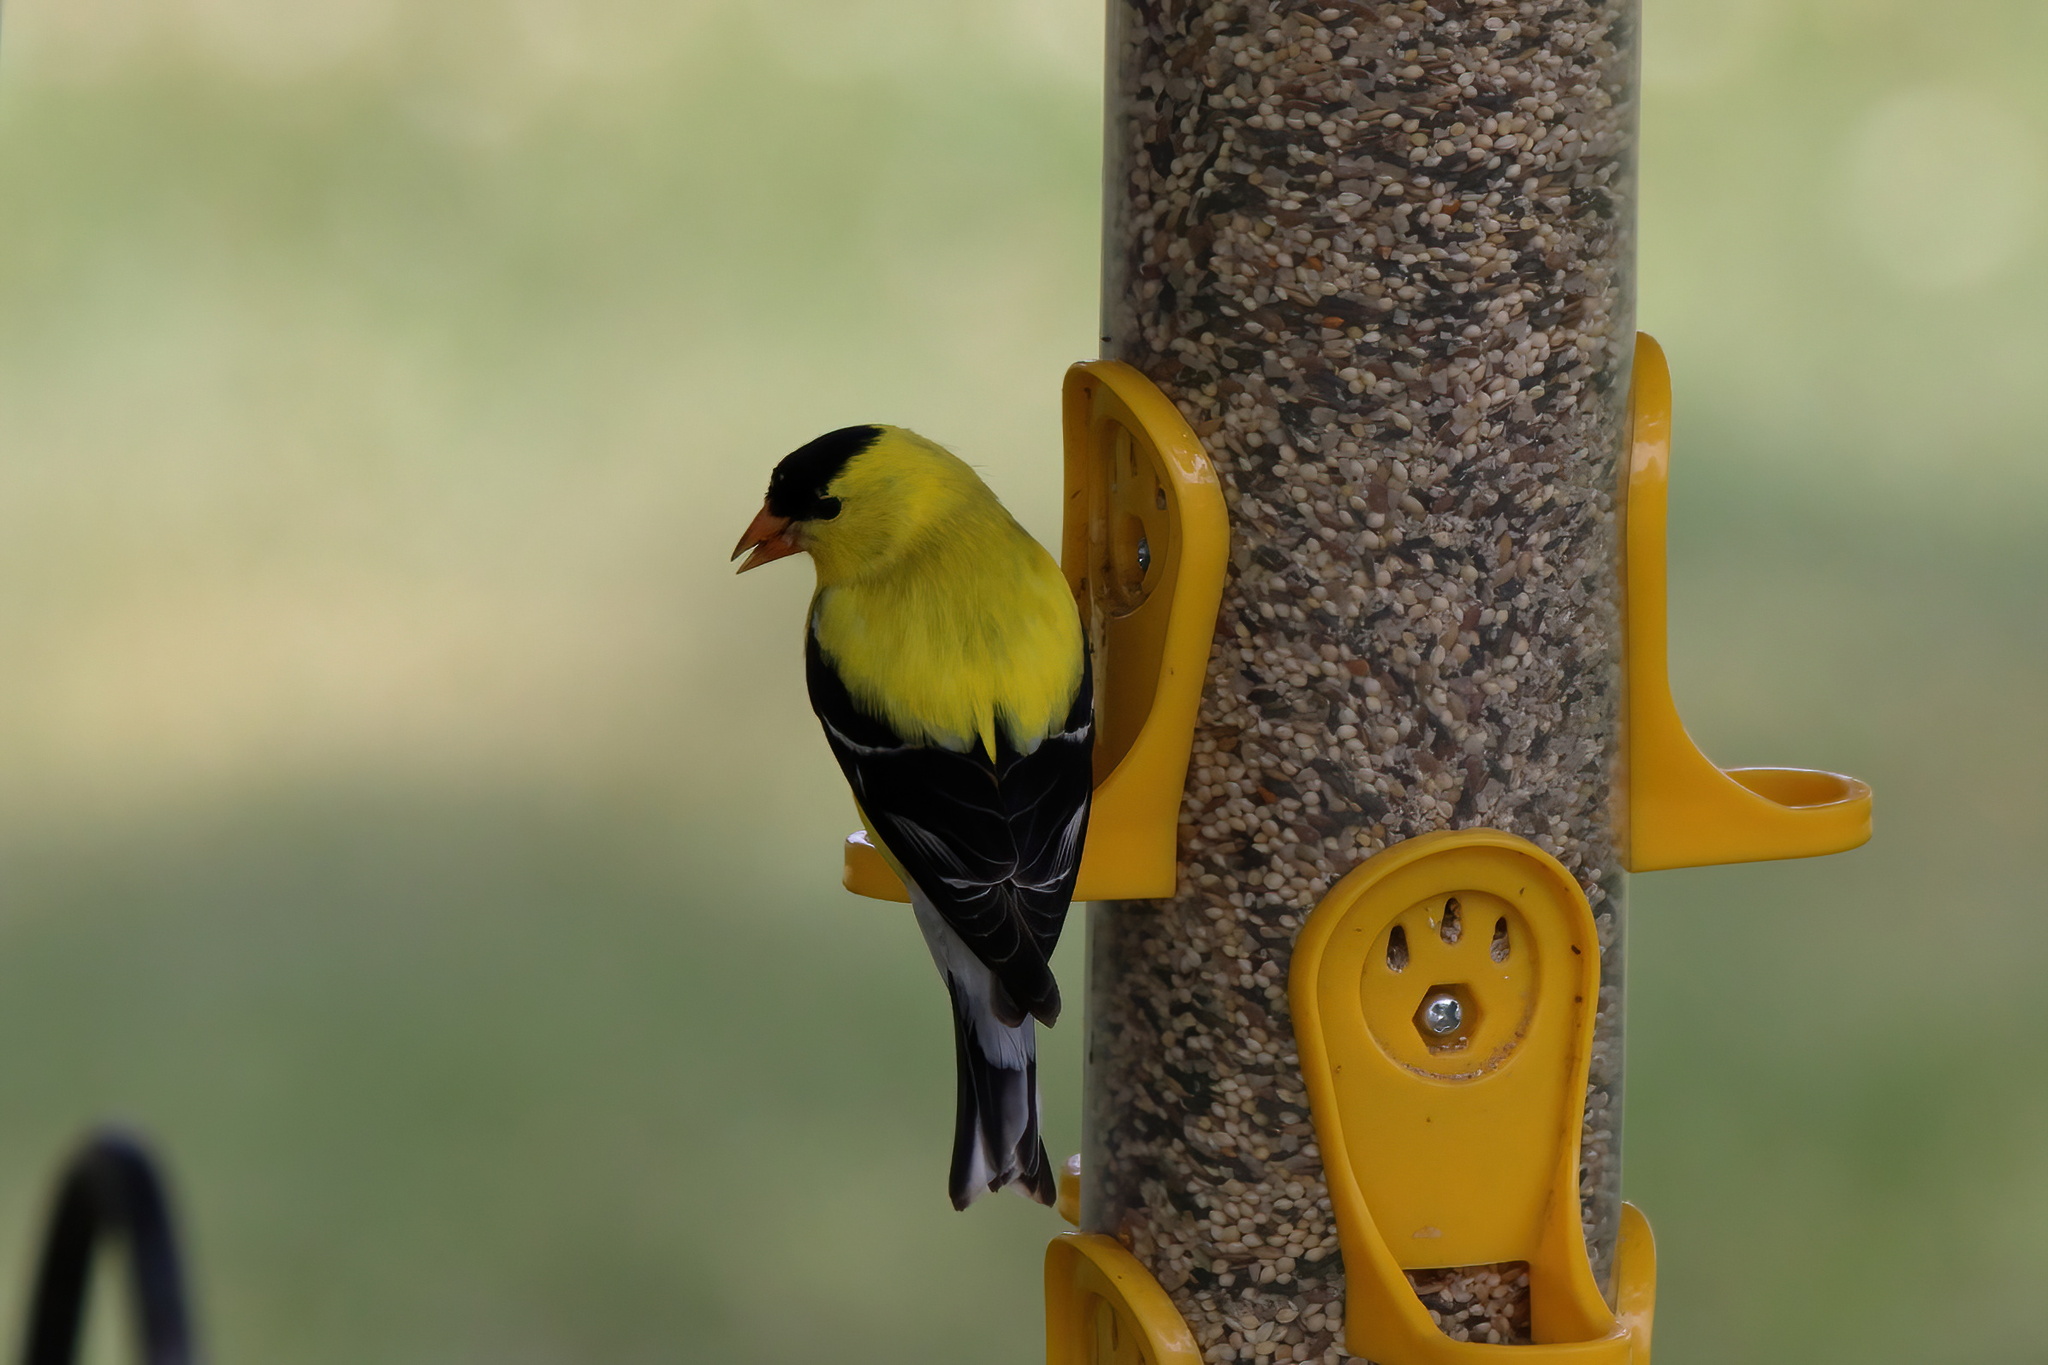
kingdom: Animalia
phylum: Chordata
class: Aves
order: Passeriformes
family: Fringillidae
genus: Spinus
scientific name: Spinus tristis
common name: American goldfinch
